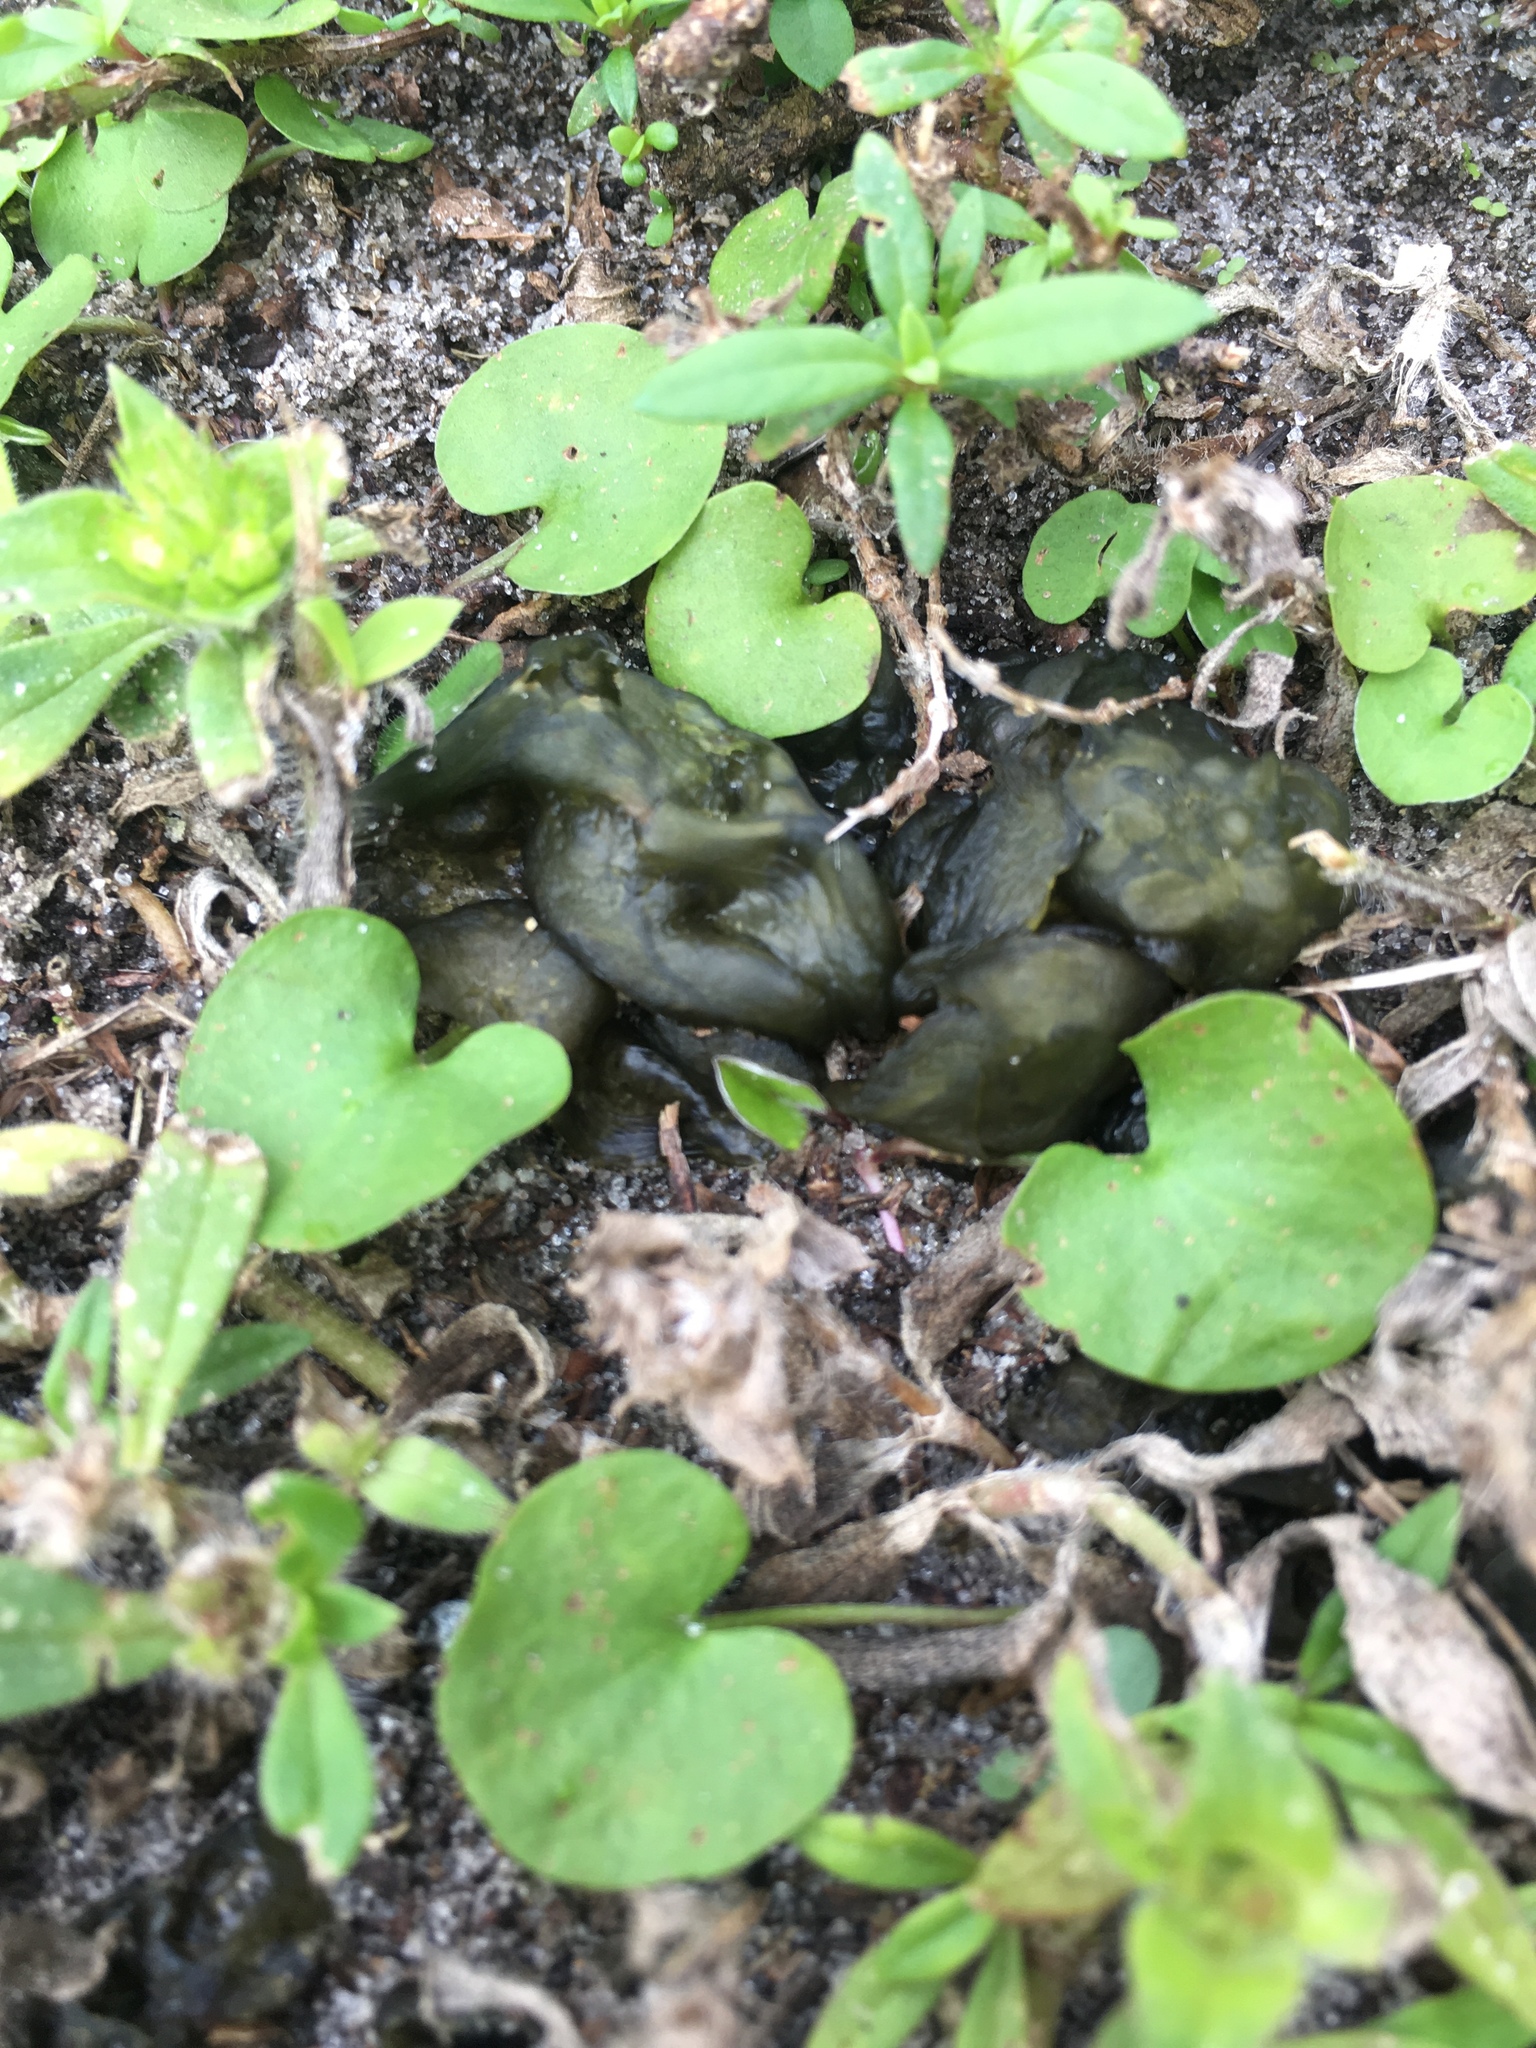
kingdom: Bacteria
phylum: Cyanobacteria
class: Cyanobacteriia
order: Cyanobacteriales
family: Nostocaceae
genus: Nostoc
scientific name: Nostoc commune
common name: Star jelly
